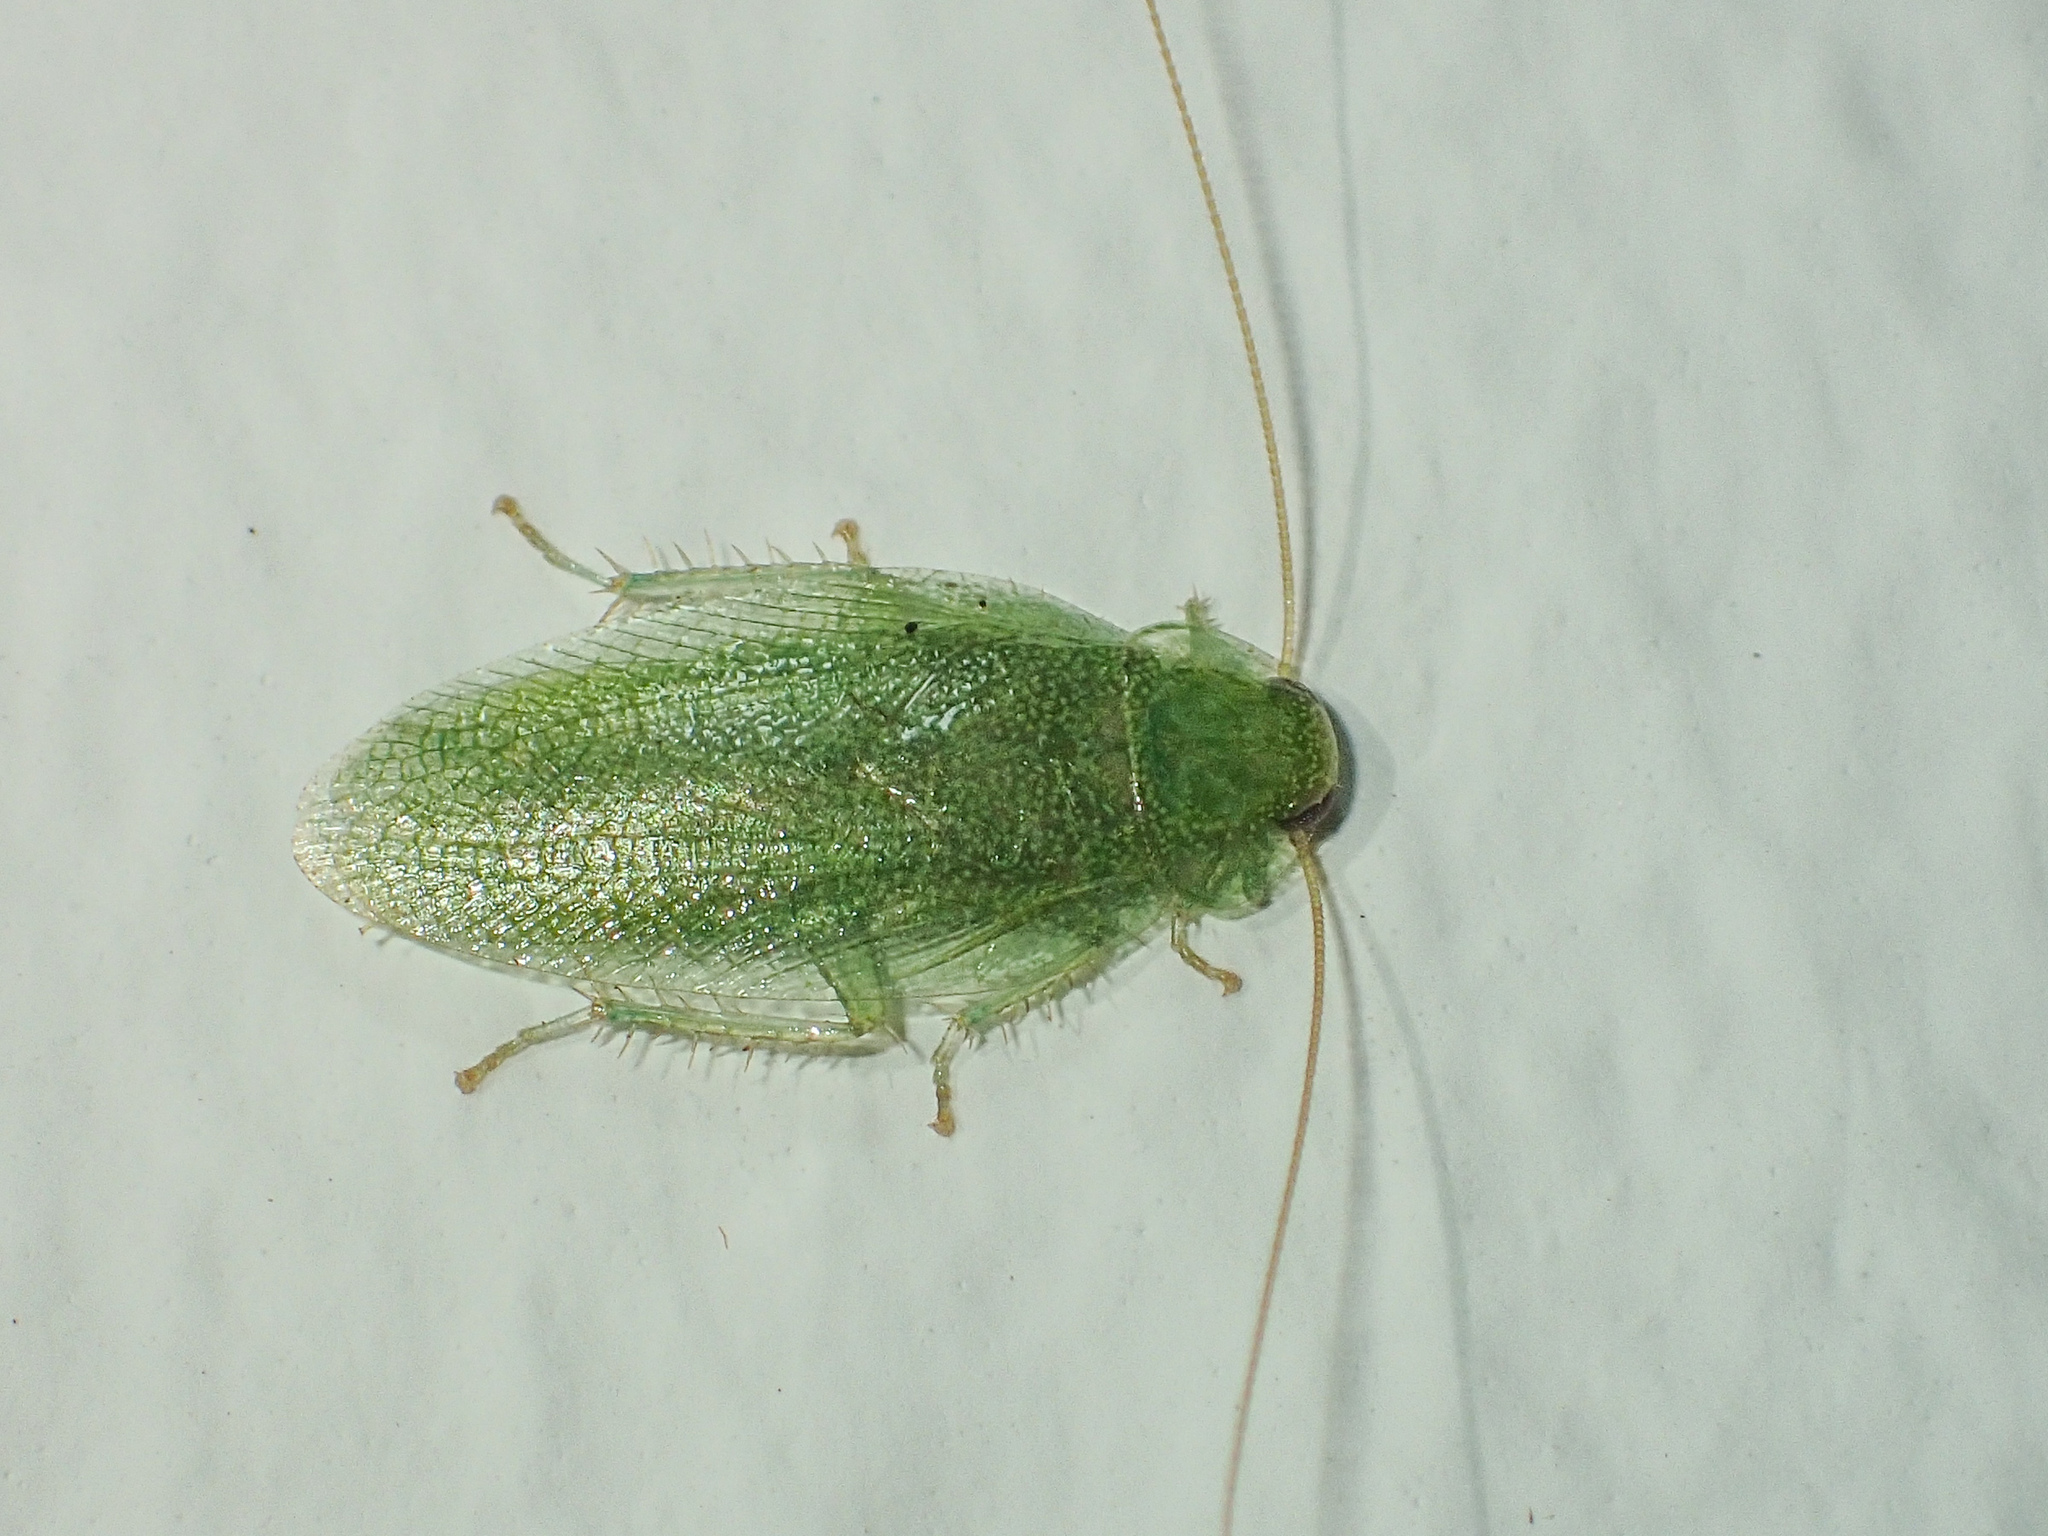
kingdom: Animalia
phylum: Arthropoda
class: Insecta
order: Blattodea
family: Ectobiidae
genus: Sorineuchora
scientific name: Sorineuchora viridis
